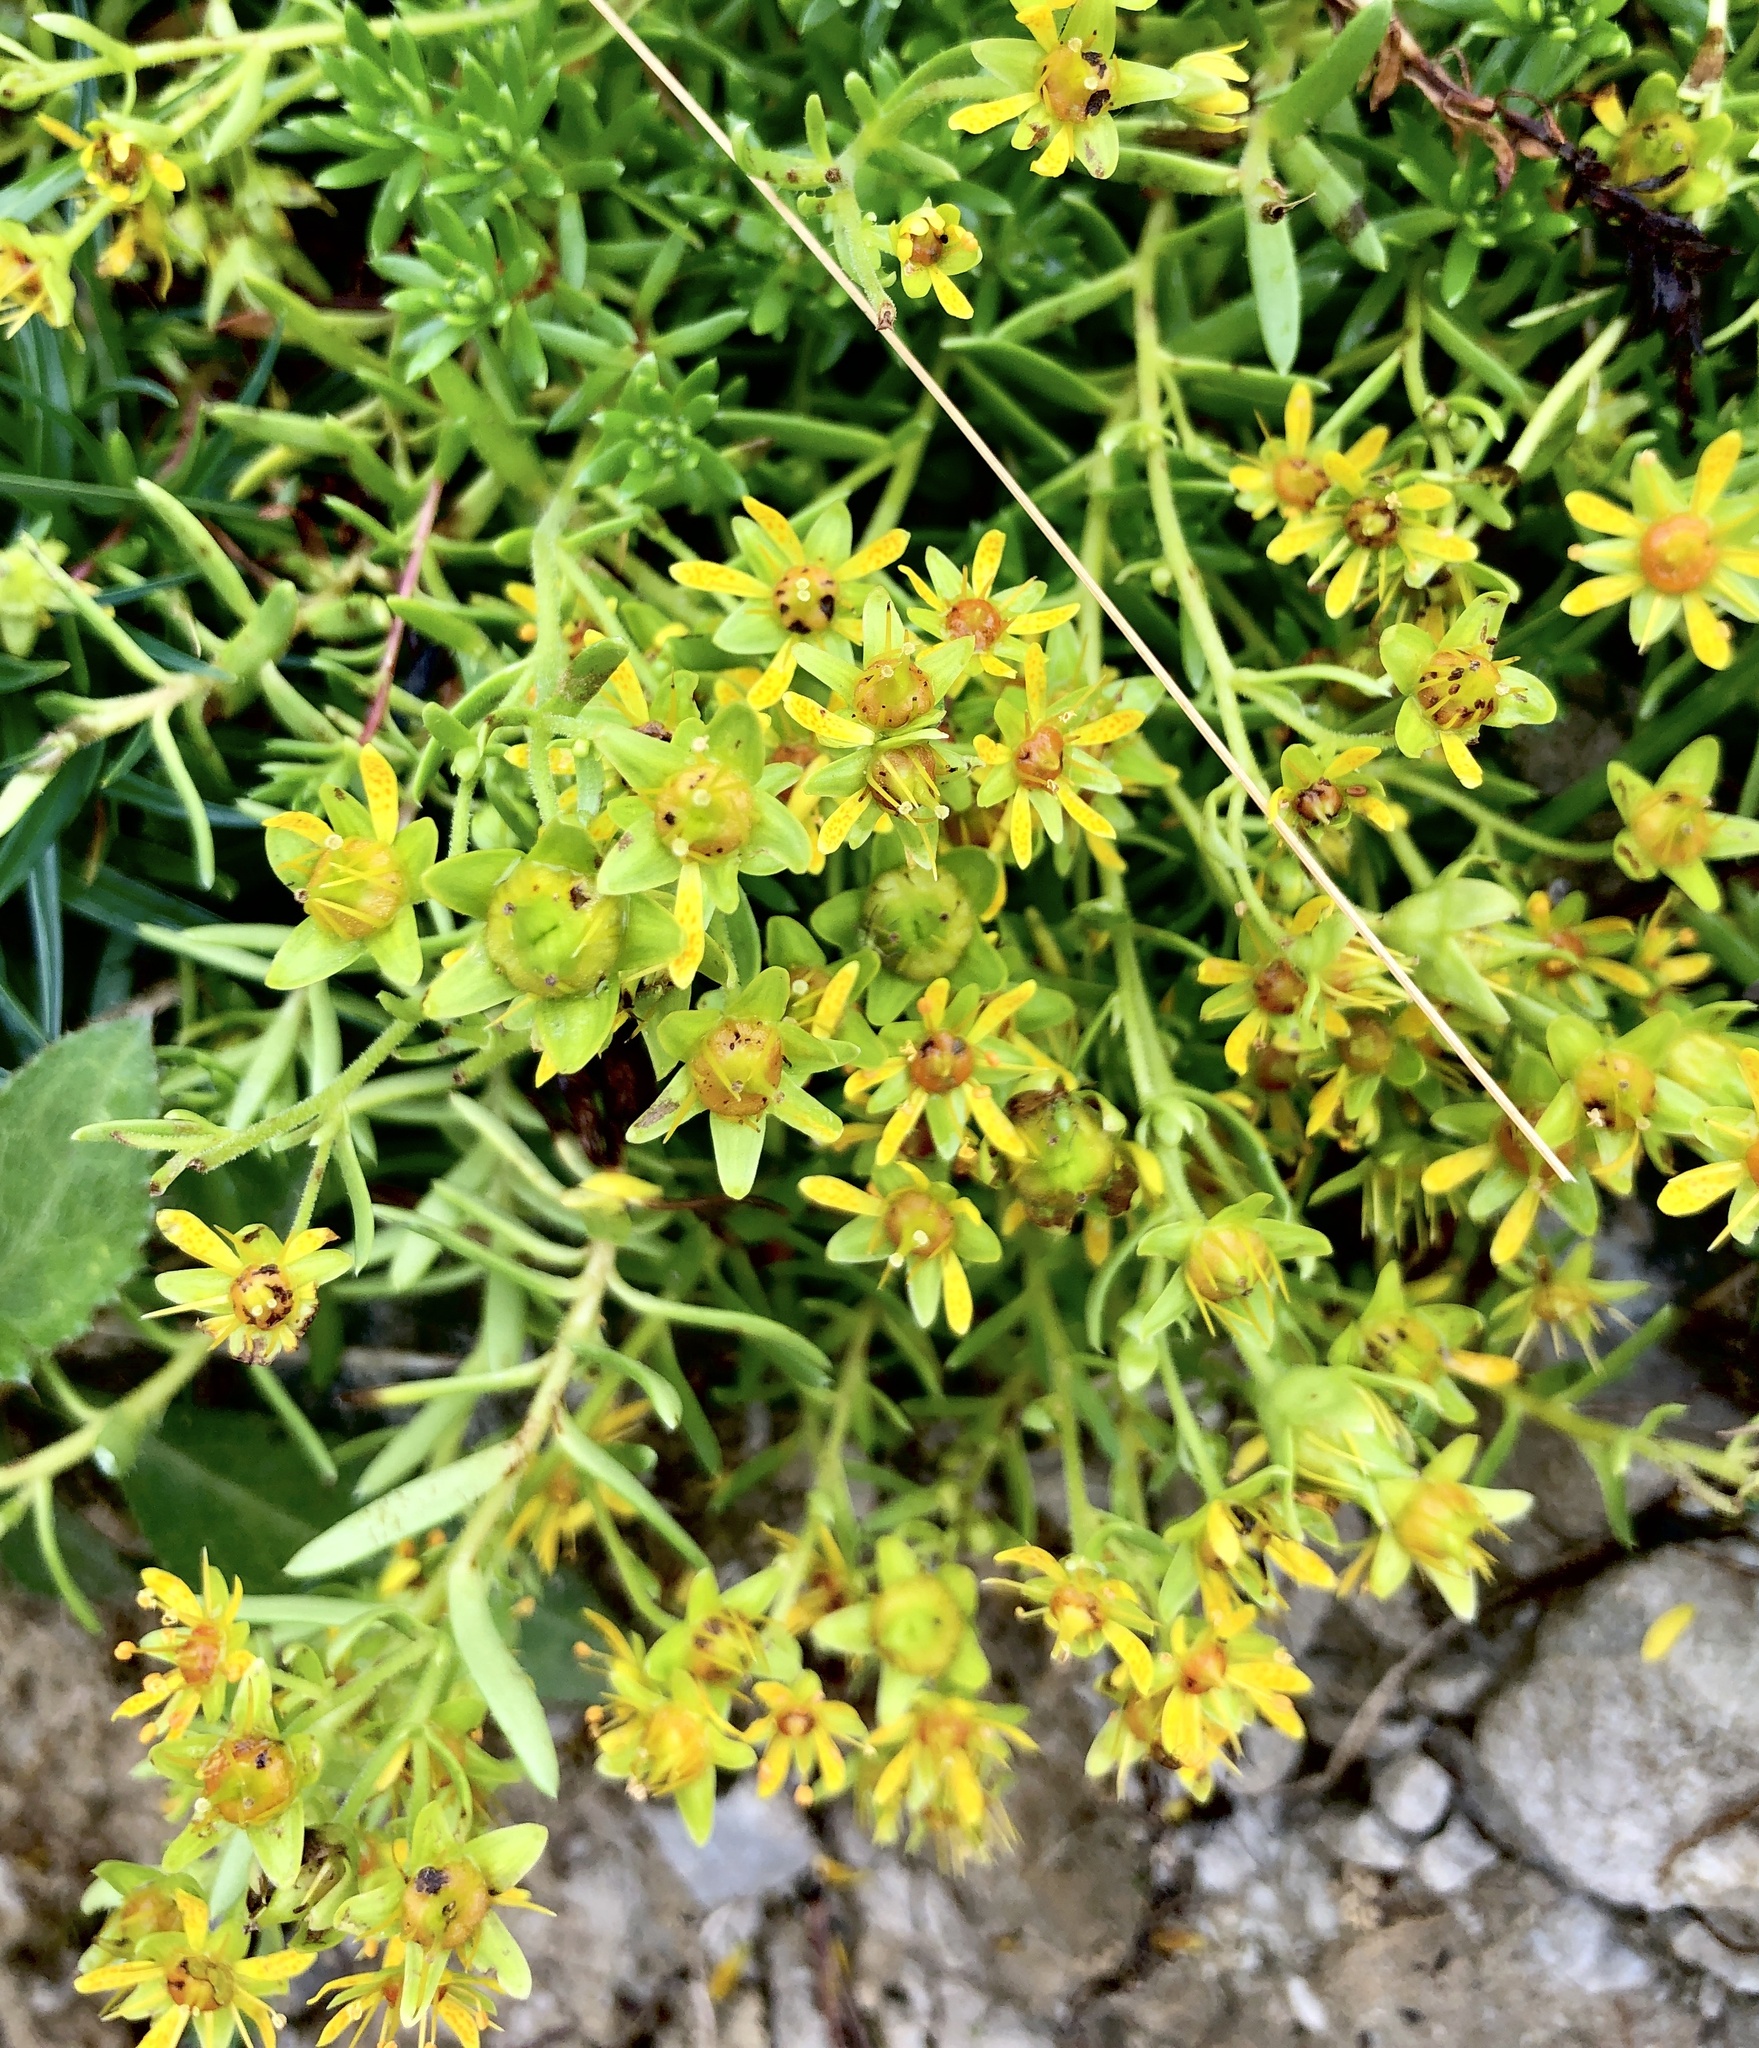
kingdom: Plantae
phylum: Tracheophyta
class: Magnoliopsida
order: Saxifragales
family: Saxifragaceae
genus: Saxifraga
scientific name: Saxifraga aizoides
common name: Yellow mountain saxifrage
